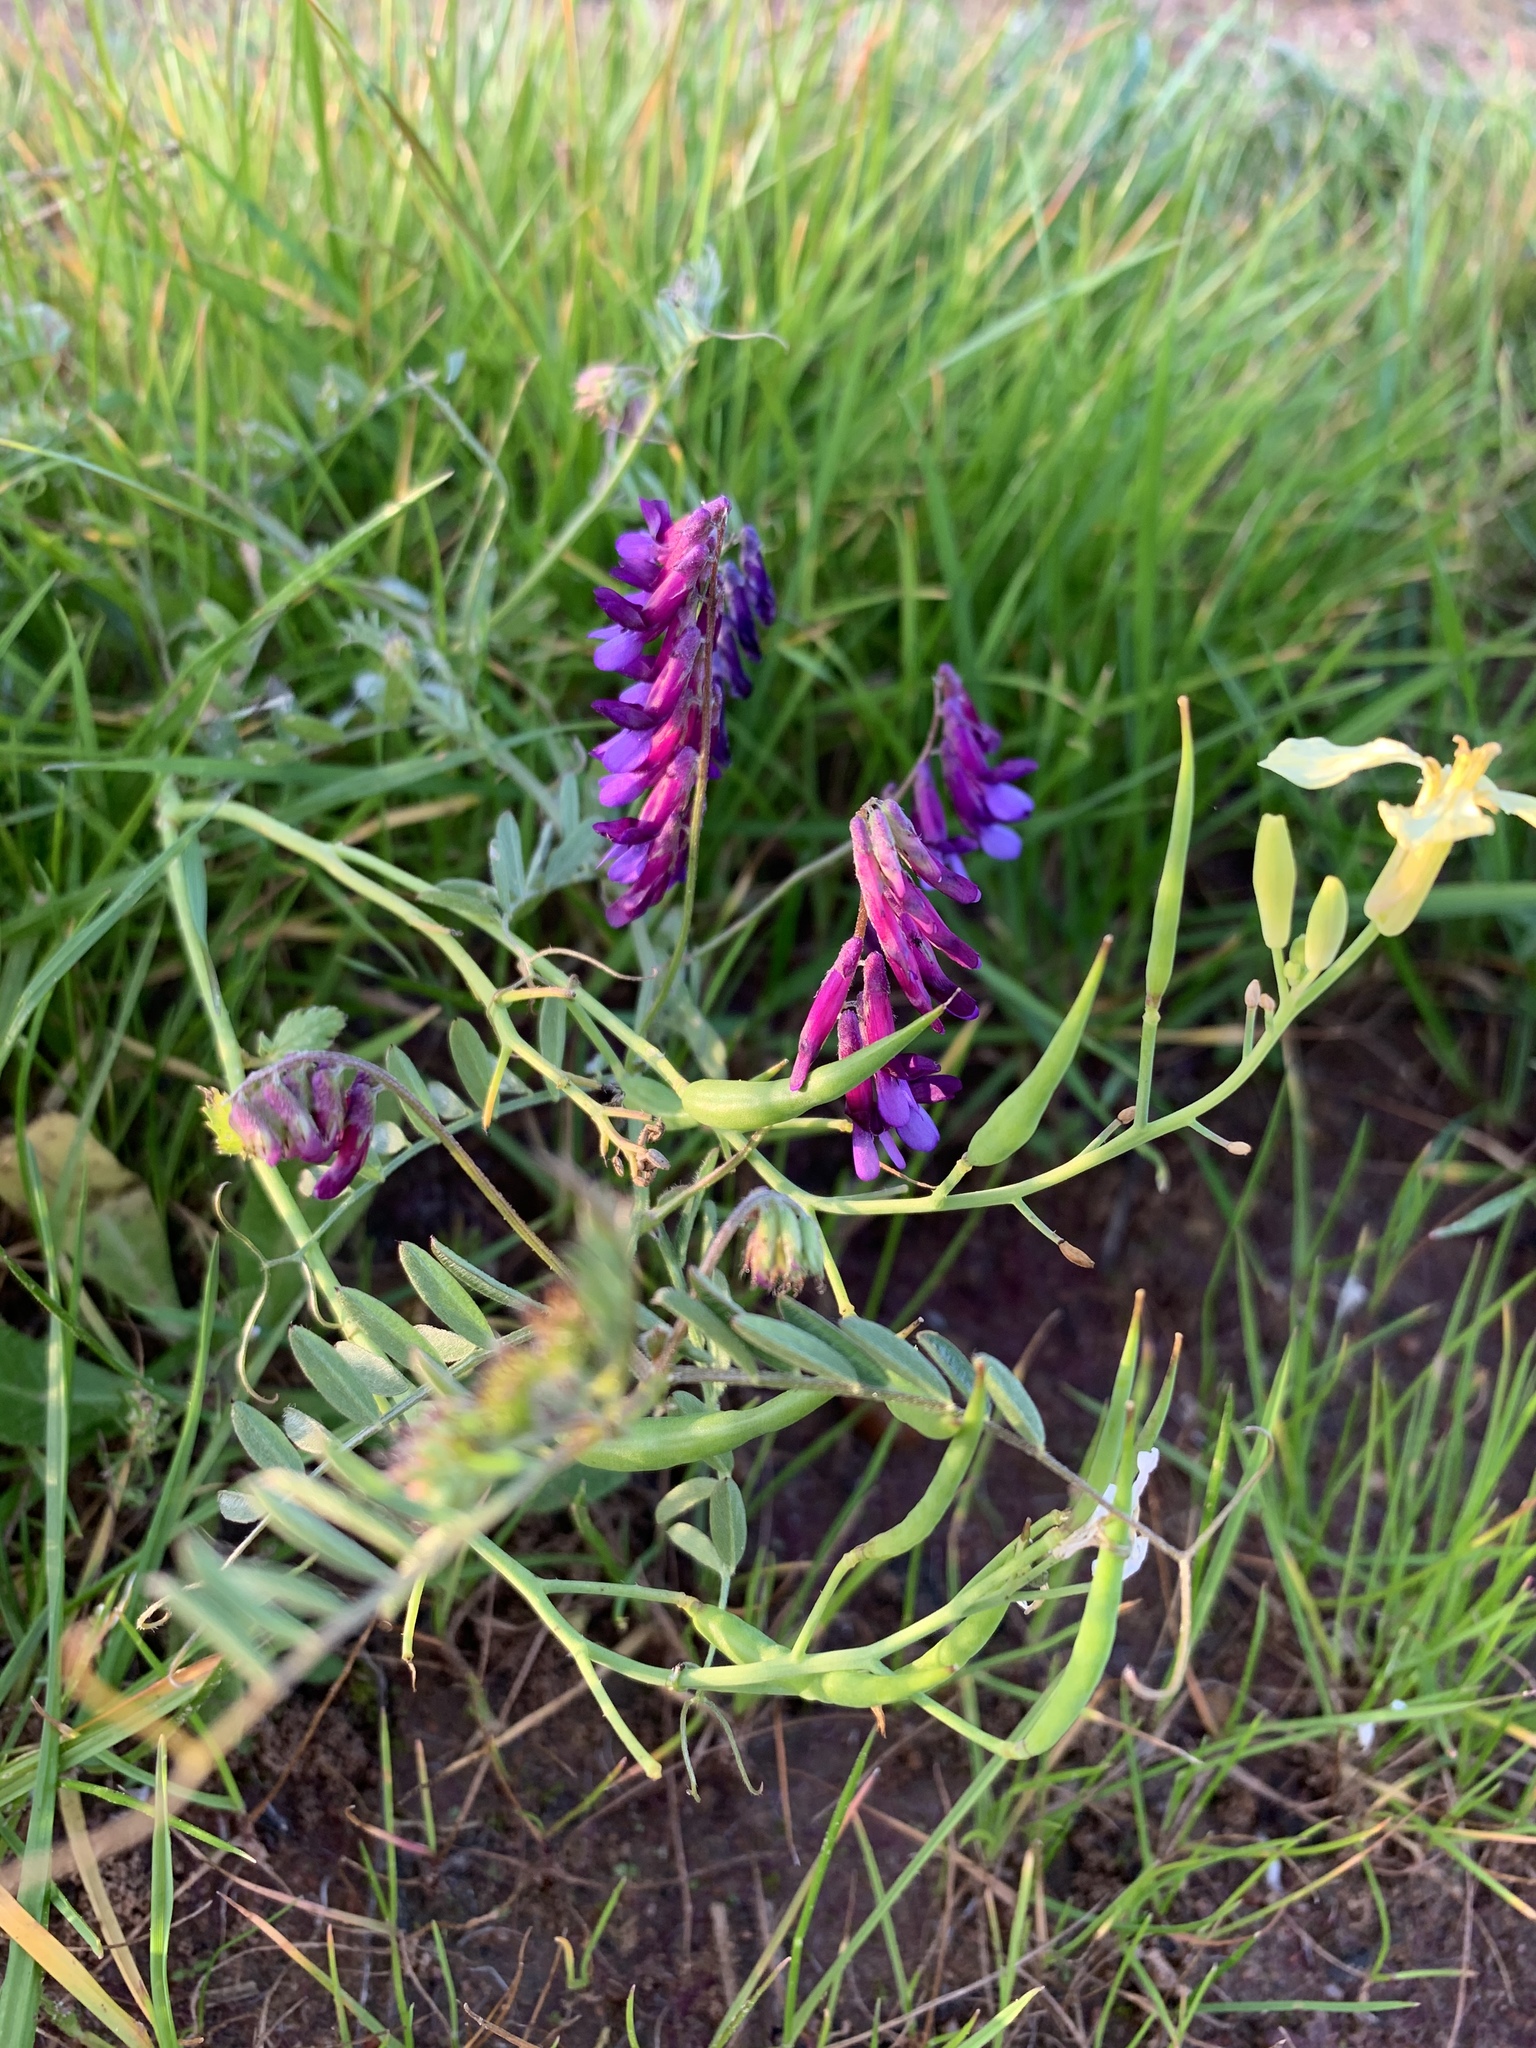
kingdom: Plantae
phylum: Tracheophyta
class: Magnoliopsida
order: Fabales
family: Fabaceae
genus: Vicia
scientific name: Vicia eriocarpa
